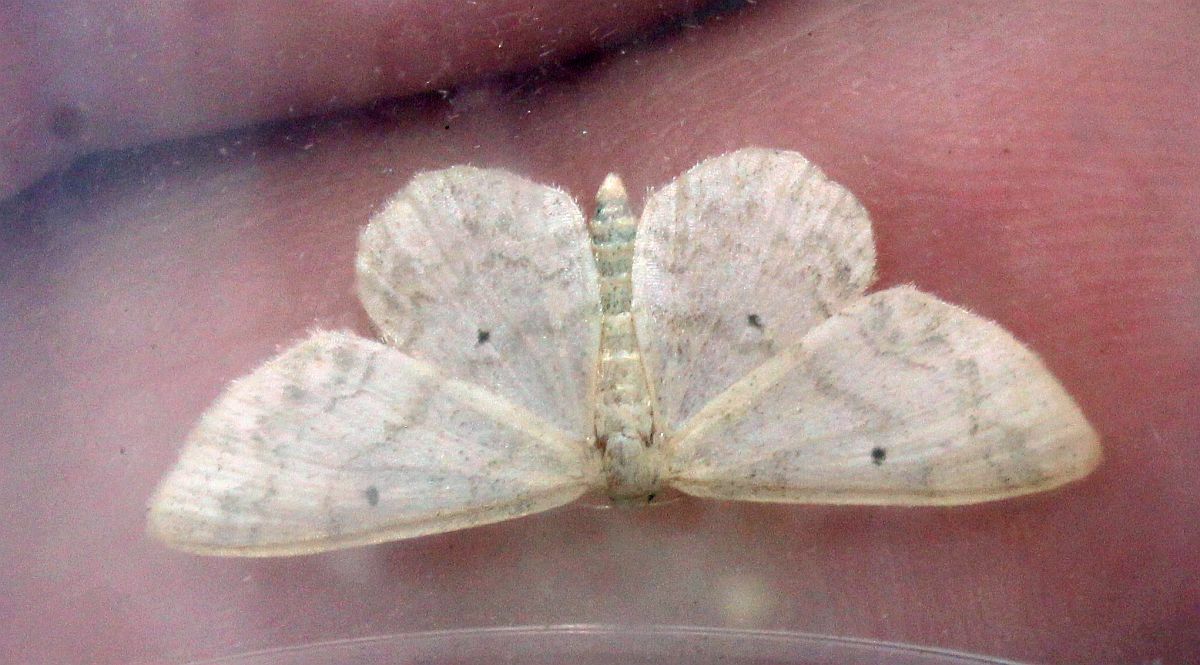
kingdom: Animalia
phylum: Arthropoda
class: Insecta
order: Lepidoptera
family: Geometridae
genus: Idaea
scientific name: Idaea biselata
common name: Small fan-footed wave
